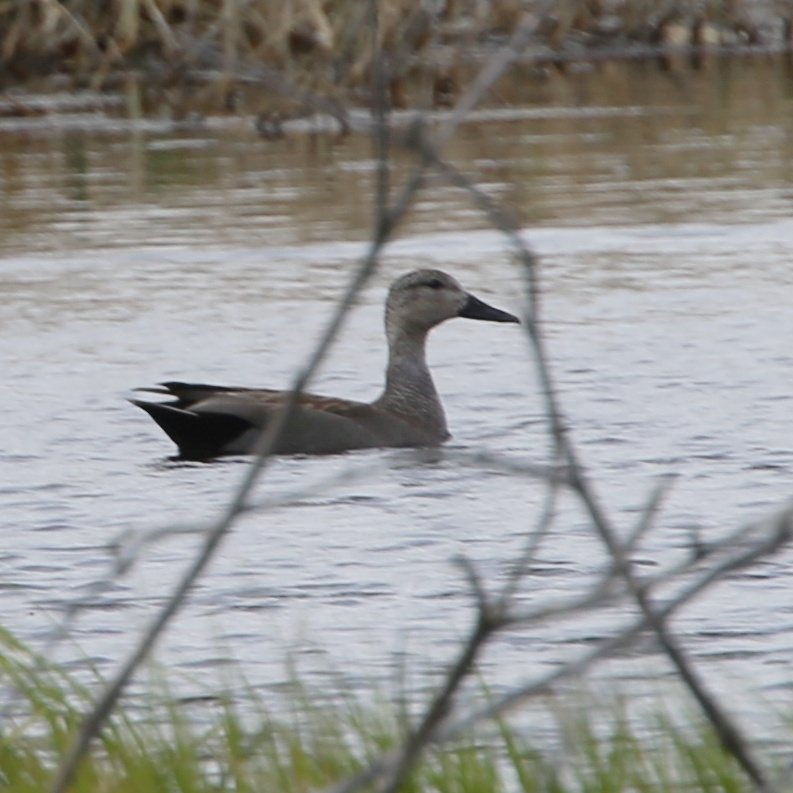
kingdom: Animalia
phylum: Chordata
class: Aves
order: Anseriformes
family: Anatidae
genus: Mareca
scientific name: Mareca strepera
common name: Gadwall
